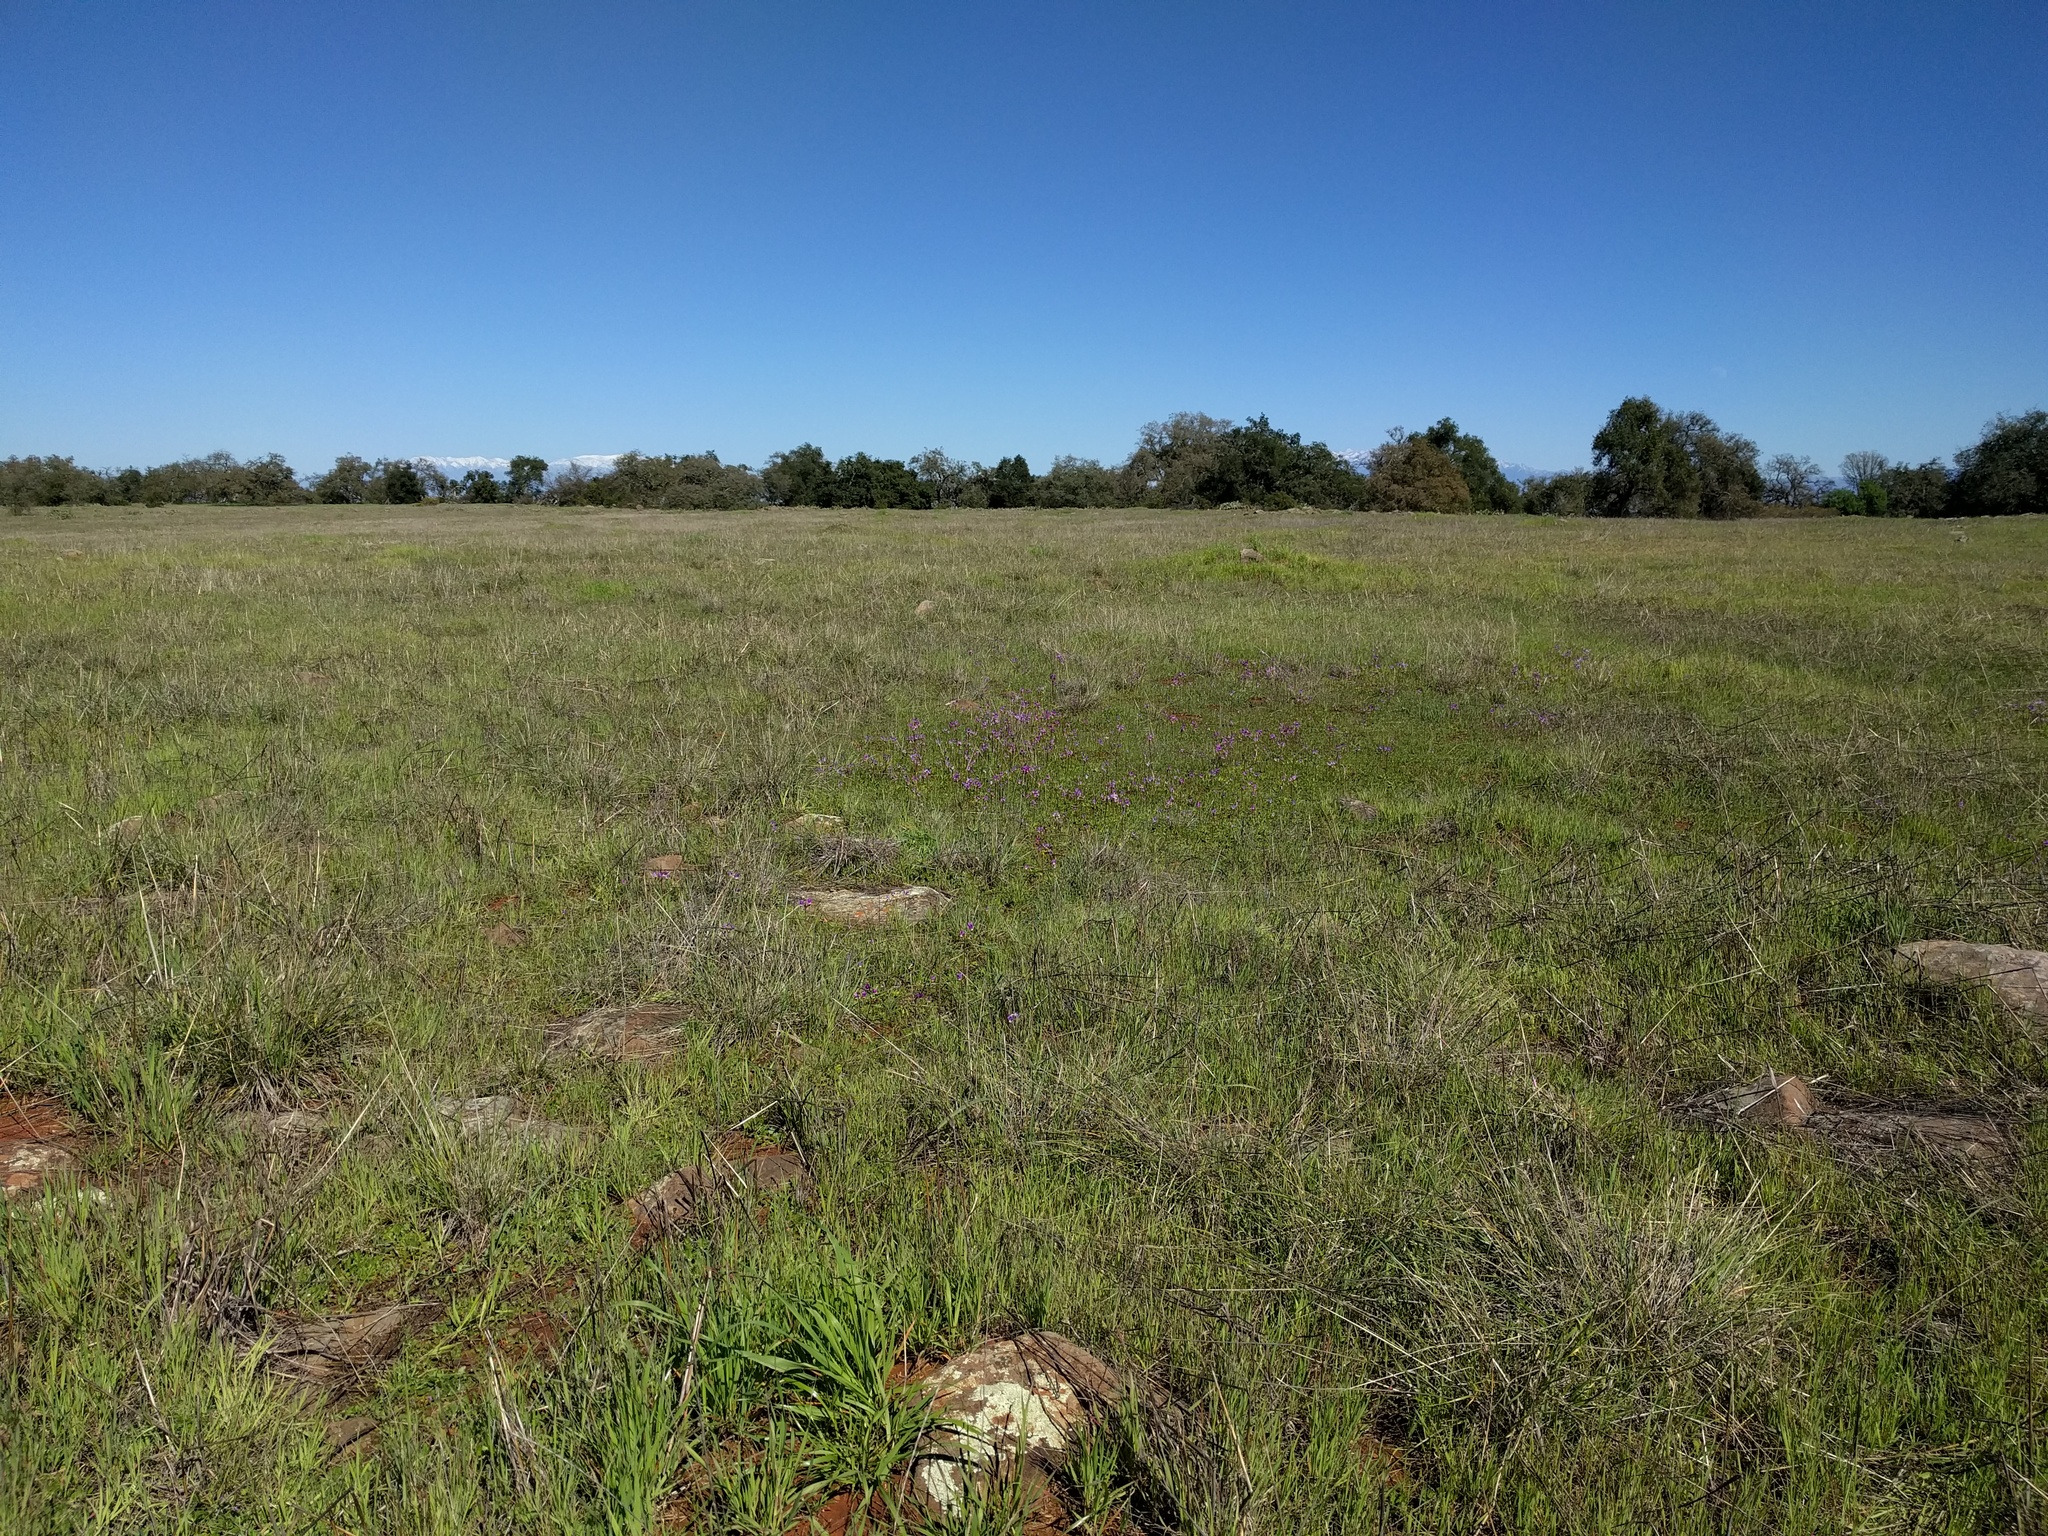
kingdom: Plantae
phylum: Tracheophyta
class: Magnoliopsida
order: Ericales
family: Primulaceae
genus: Dodecatheon
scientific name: Dodecatheon clevelandii
